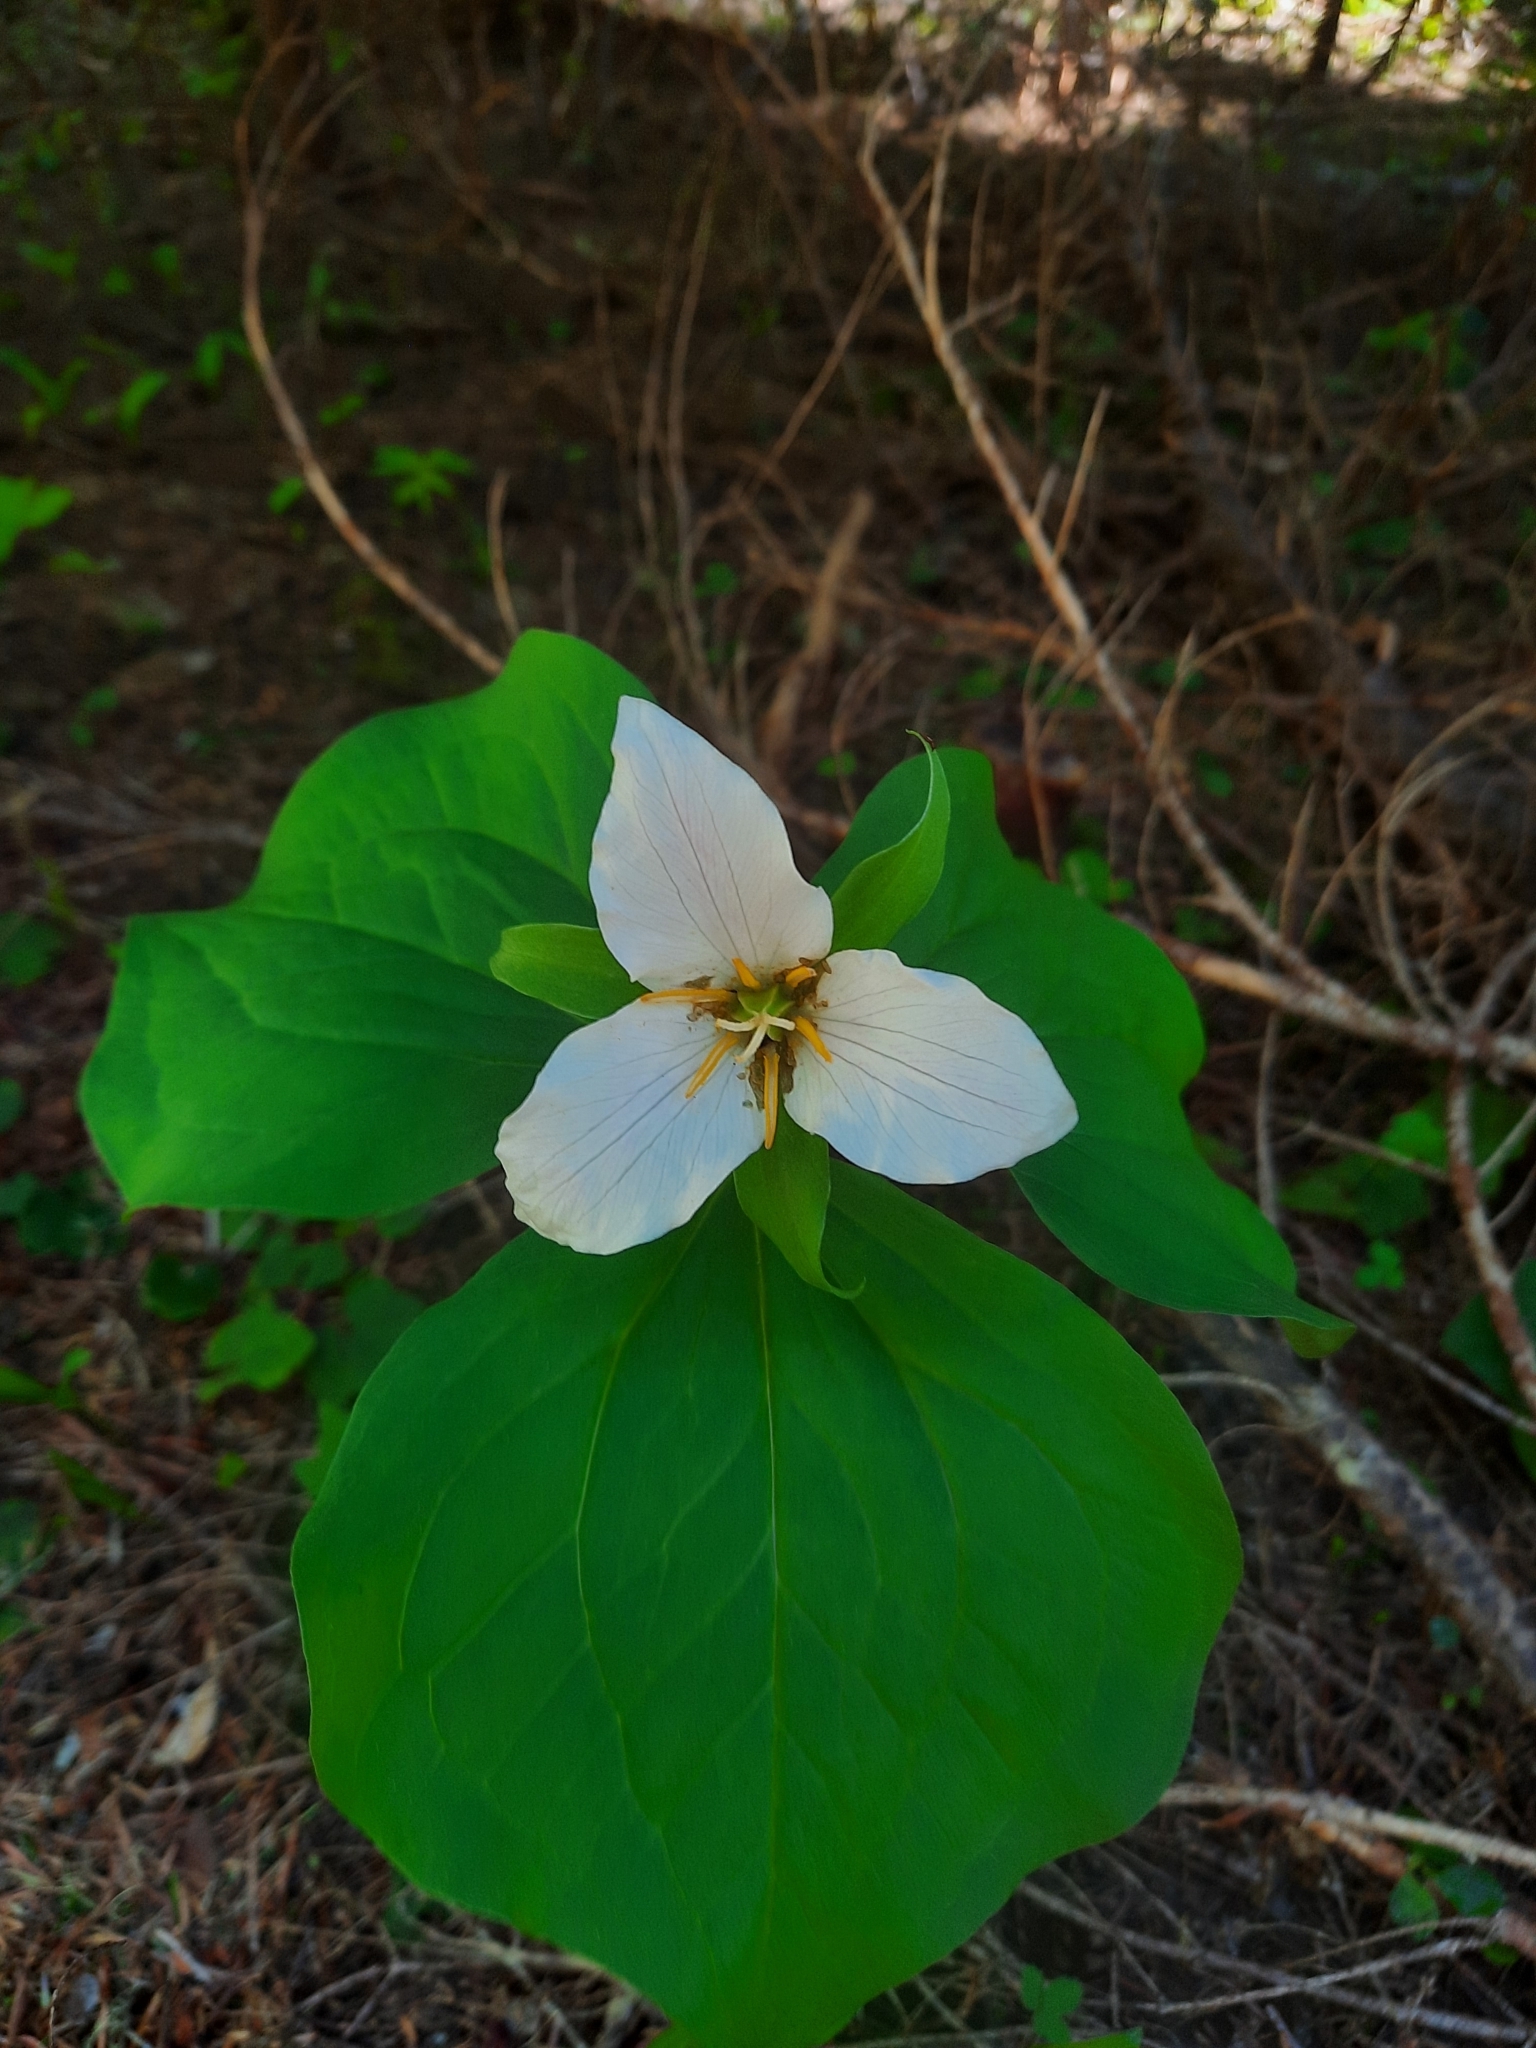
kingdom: Plantae
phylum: Tracheophyta
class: Liliopsida
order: Liliales
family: Melanthiaceae
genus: Trillium
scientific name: Trillium ovatum
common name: Pacific trillium
